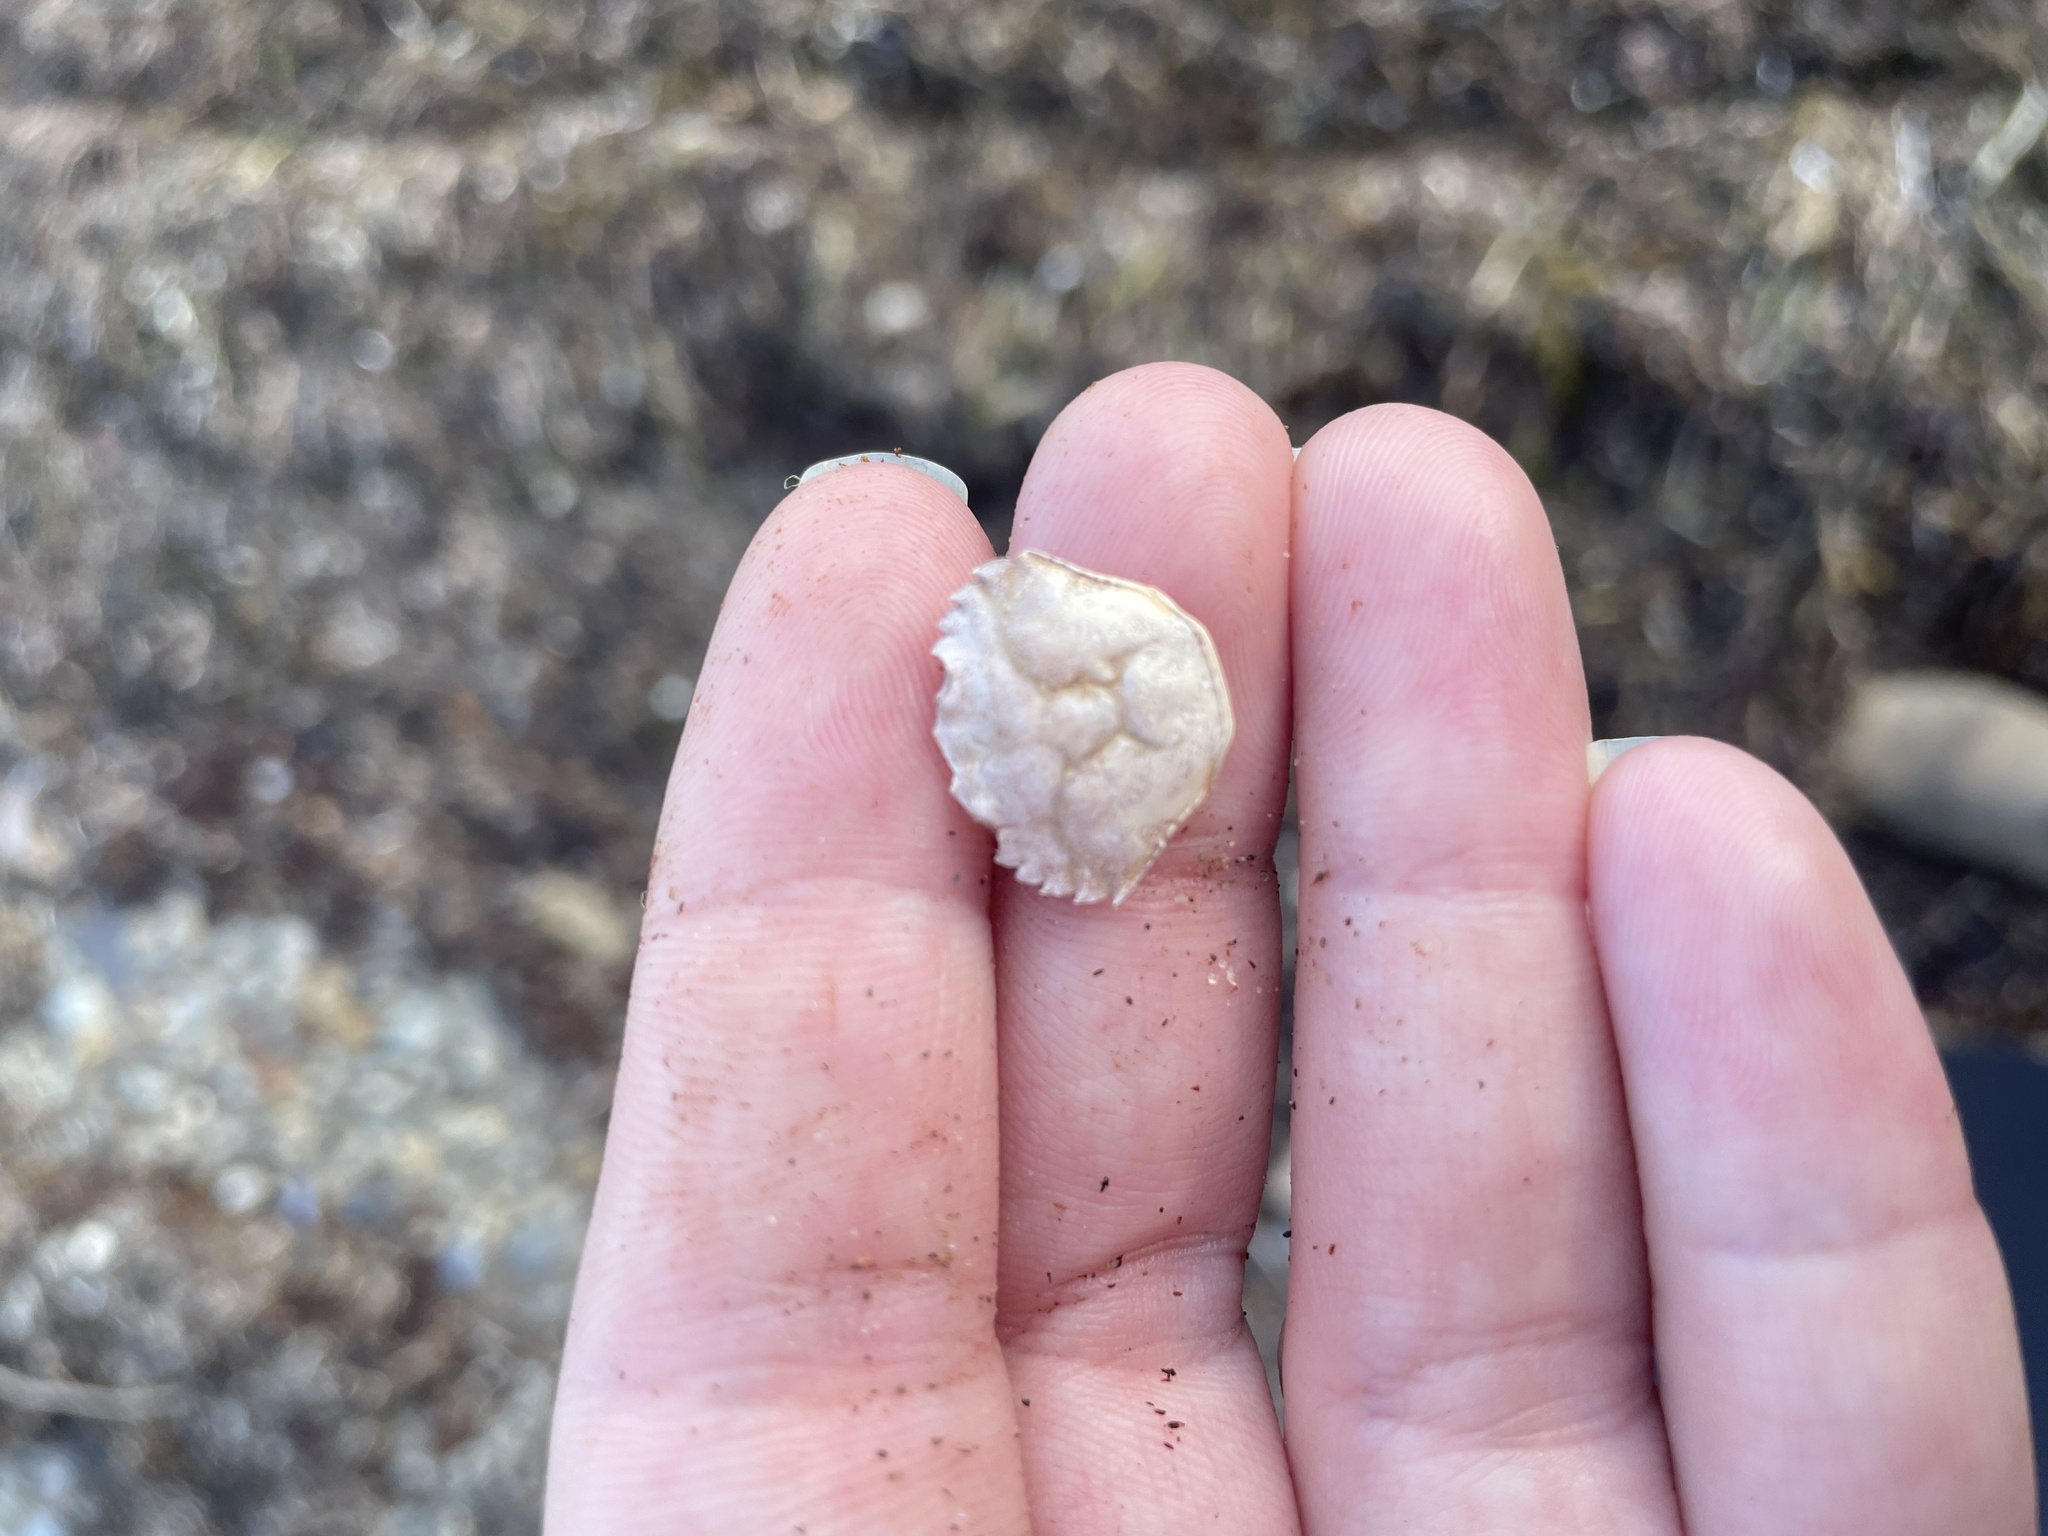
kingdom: Animalia
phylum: Arthropoda
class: Malacostraca
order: Decapoda
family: Carcinidae
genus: Carcinus
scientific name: Carcinus maenas
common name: European green crab
